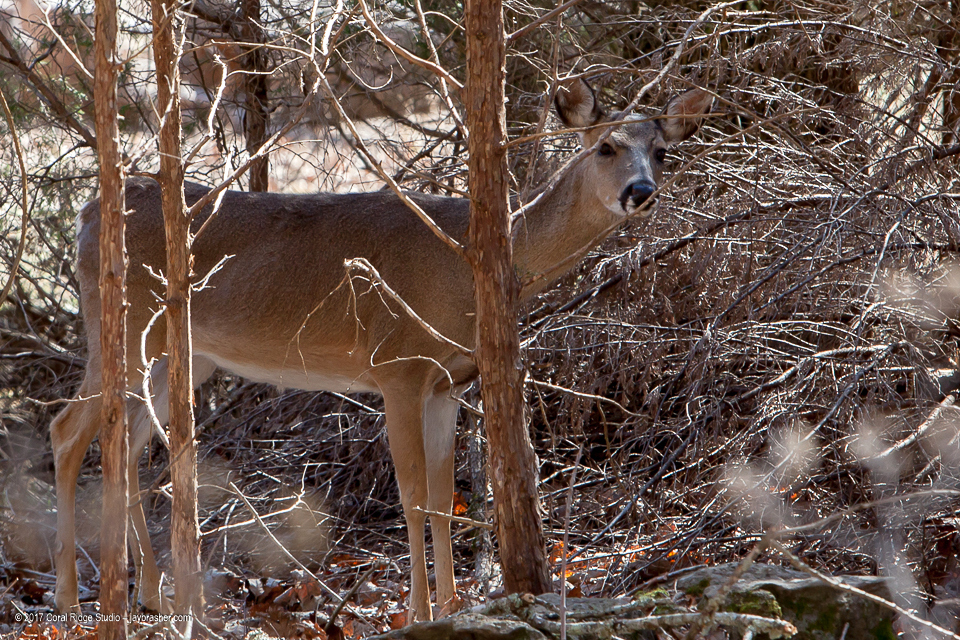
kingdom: Animalia
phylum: Chordata
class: Mammalia
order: Artiodactyla
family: Cervidae
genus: Odocoileus
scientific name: Odocoileus virginianus
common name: White-tailed deer
